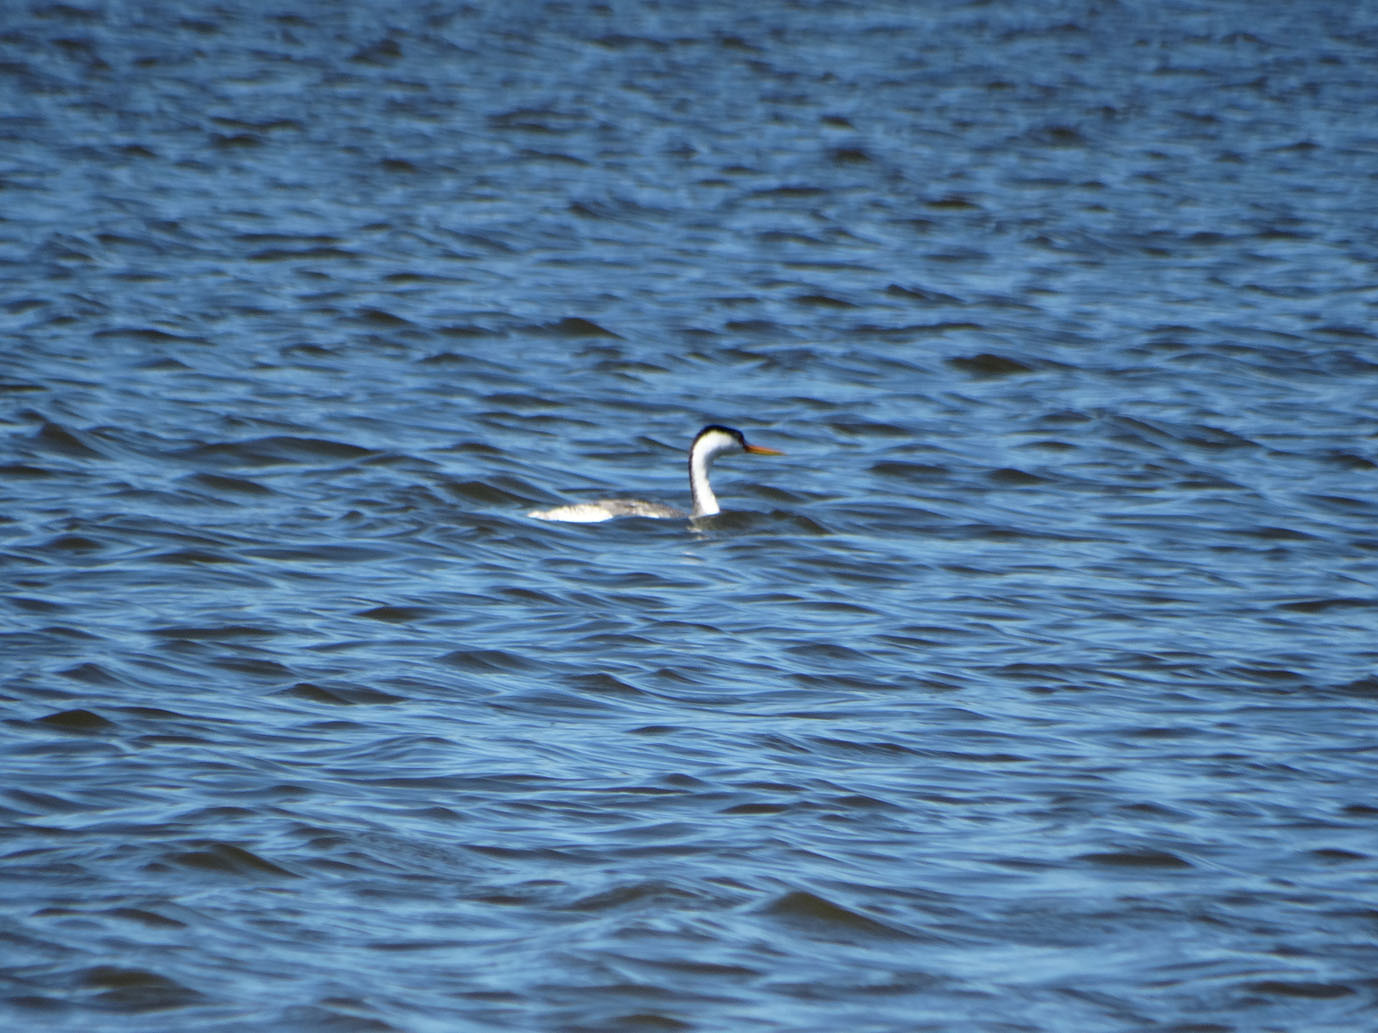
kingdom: Animalia
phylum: Chordata
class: Aves
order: Podicipediformes
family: Podicipedidae
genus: Aechmophorus
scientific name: Aechmophorus clarkii
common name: Clark's grebe
